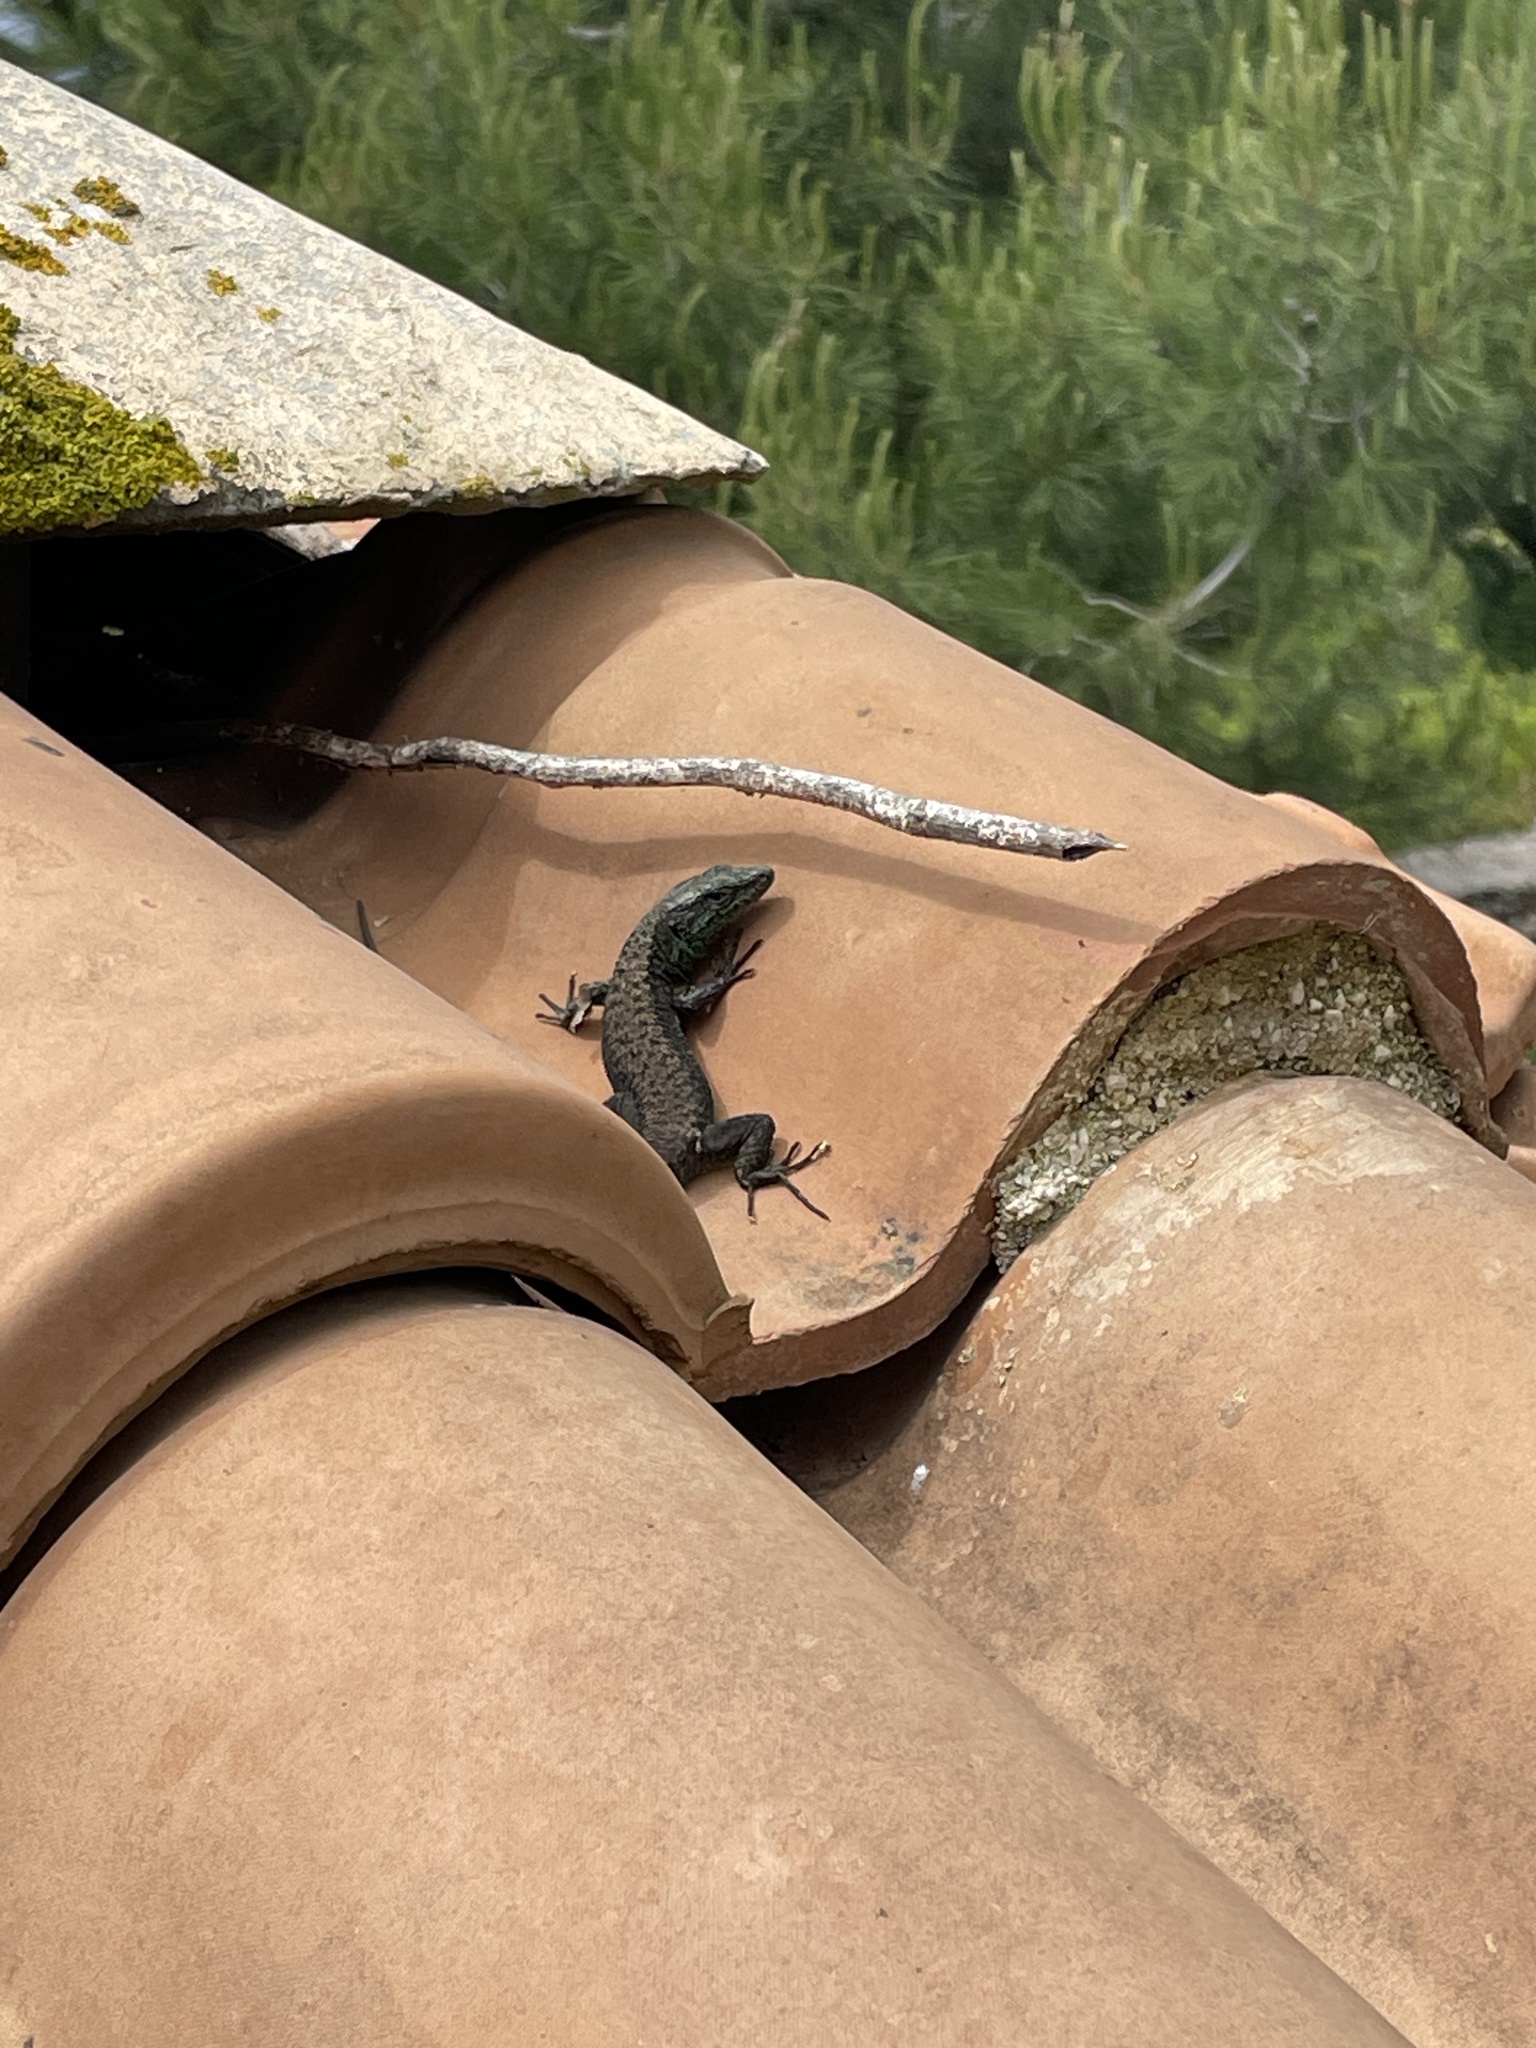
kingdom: Animalia
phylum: Chordata
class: Squamata
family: Lacertidae
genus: Algyroides
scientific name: Algyroides nigropunctatus
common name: Blue-throated keeled lizard
